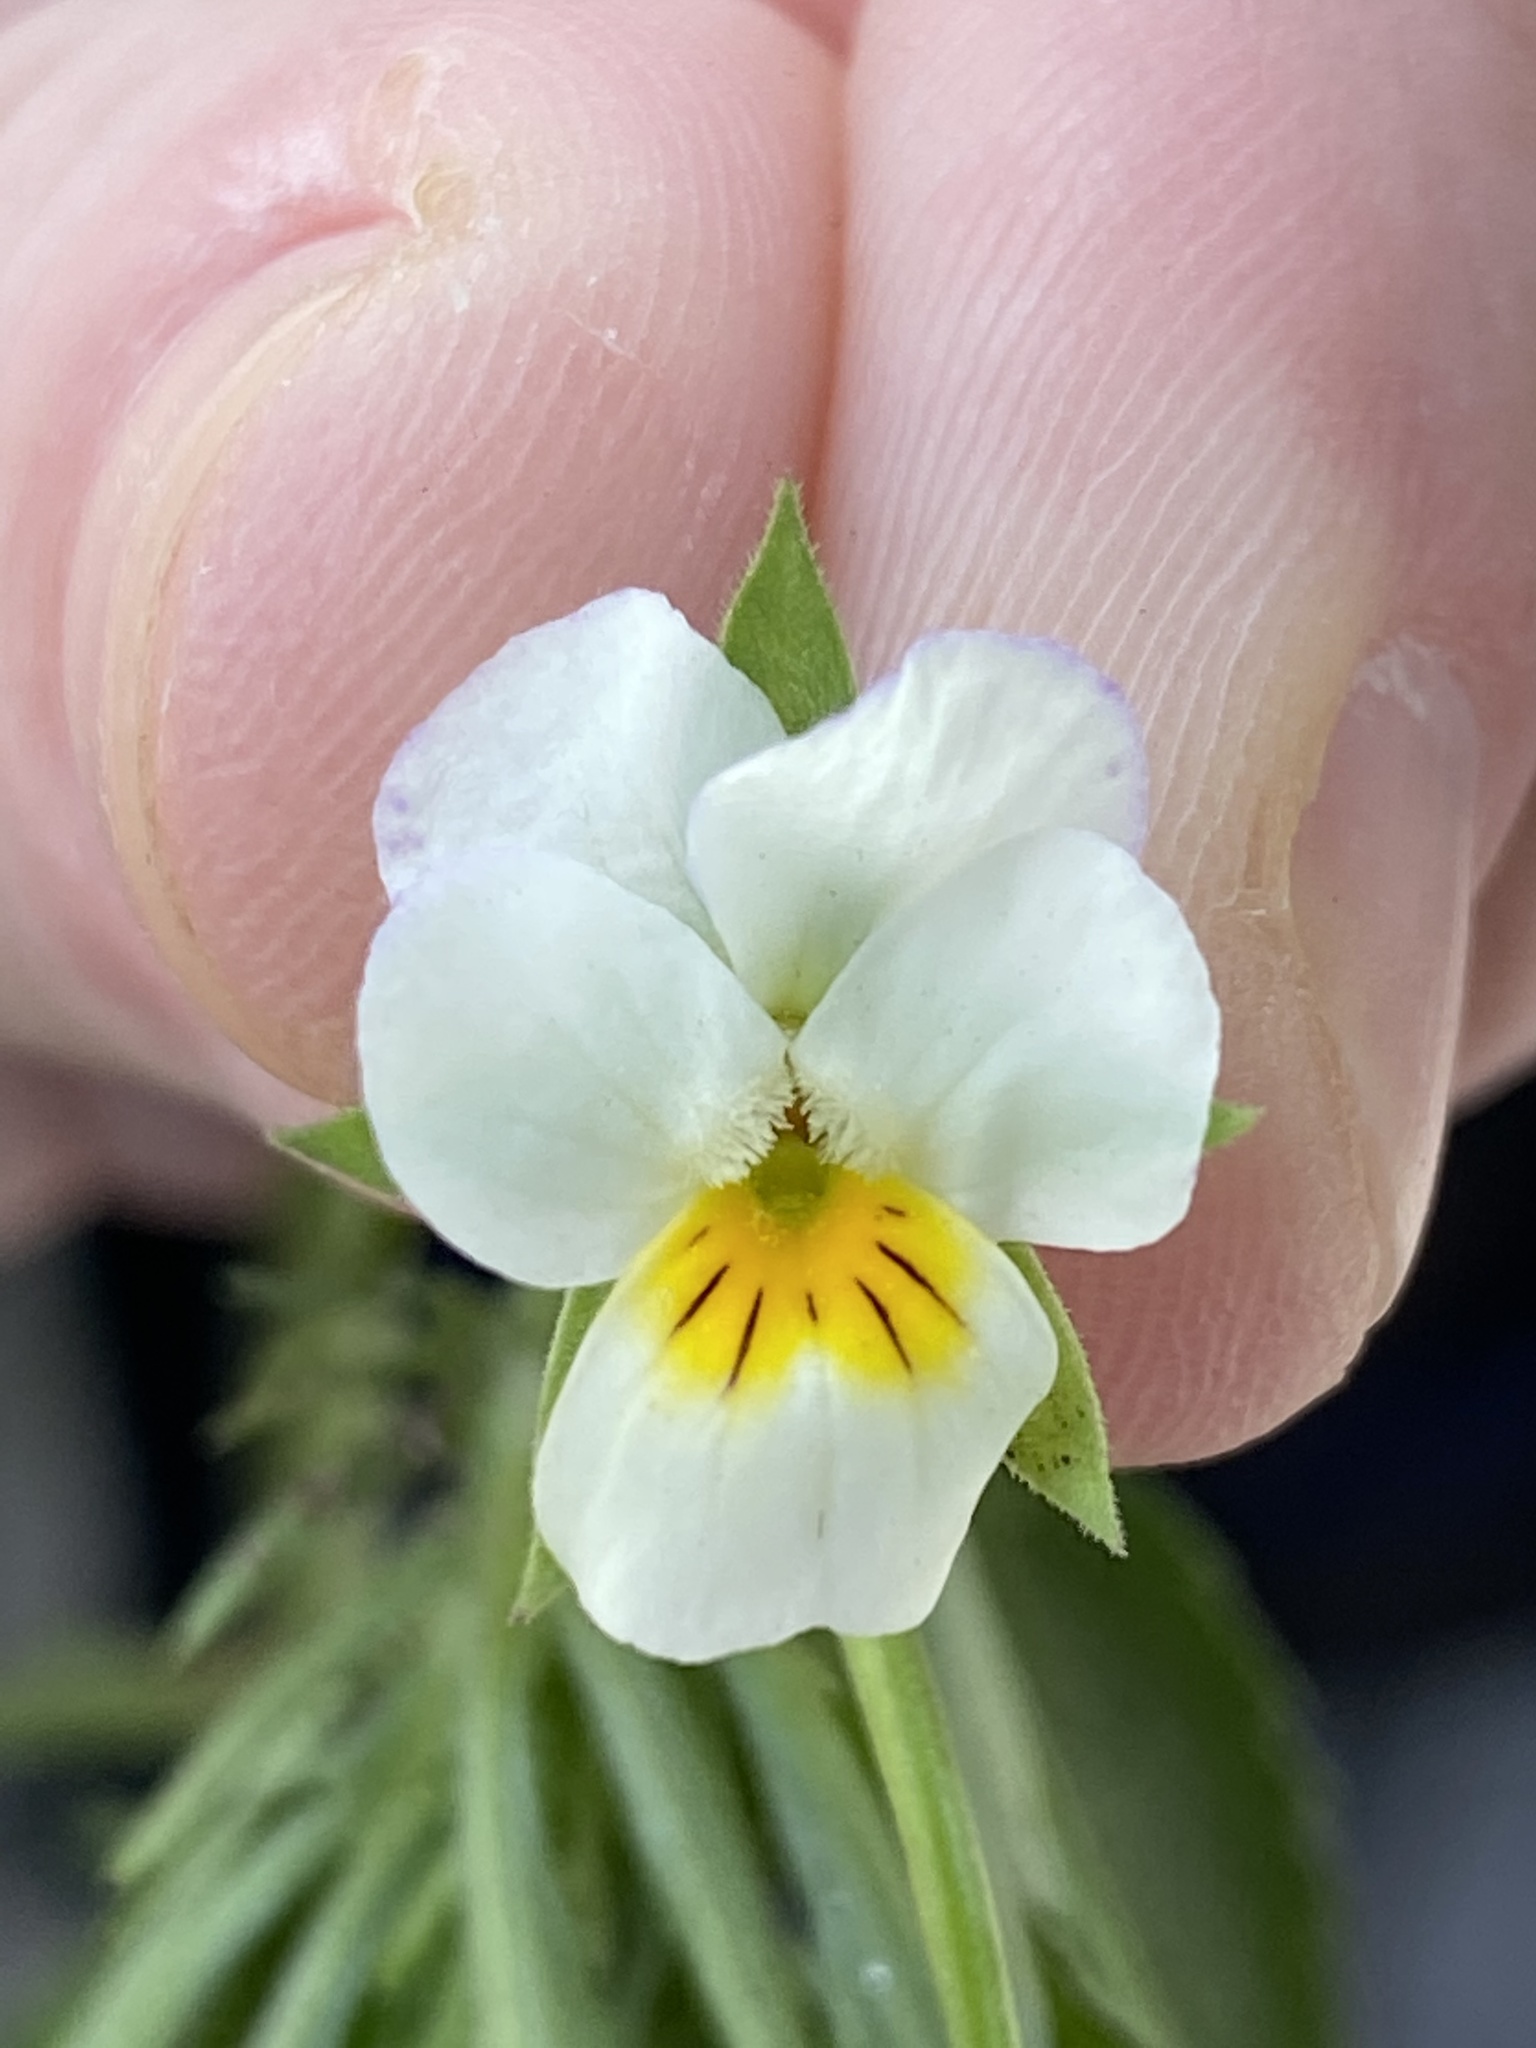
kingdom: Plantae
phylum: Tracheophyta
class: Magnoliopsida
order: Malpighiales
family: Violaceae
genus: Viola
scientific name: Viola arvensis
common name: Field pansy
